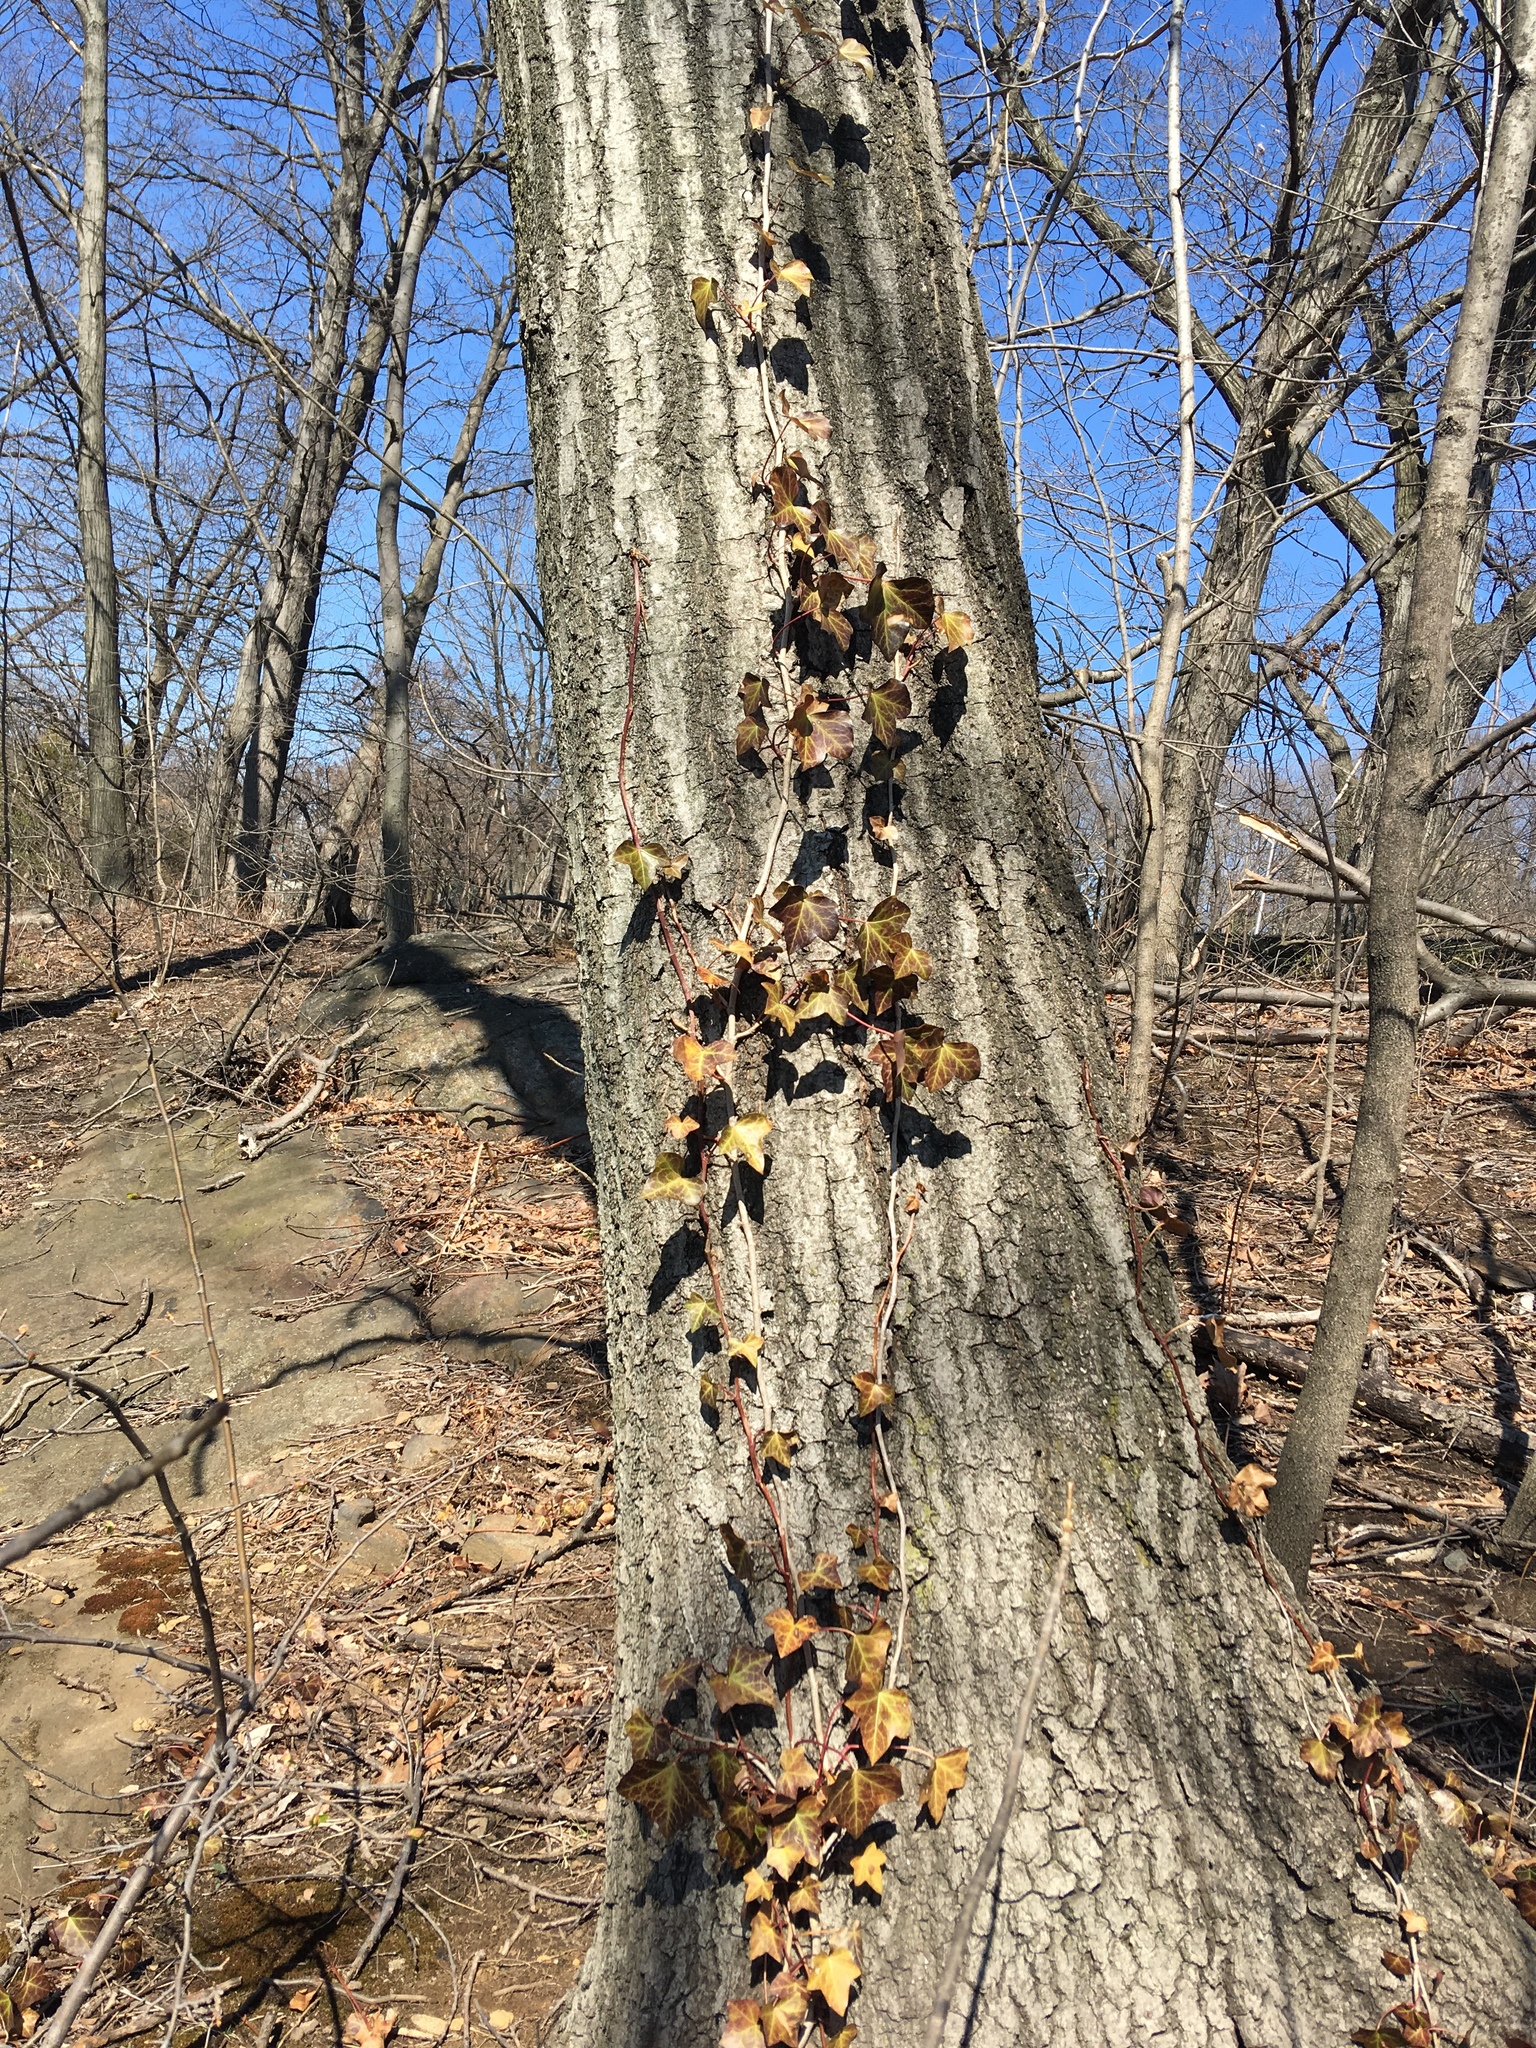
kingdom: Plantae
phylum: Tracheophyta
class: Magnoliopsida
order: Apiales
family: Araliaceae
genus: Hedera
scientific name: Hedera helix
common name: Ivy
